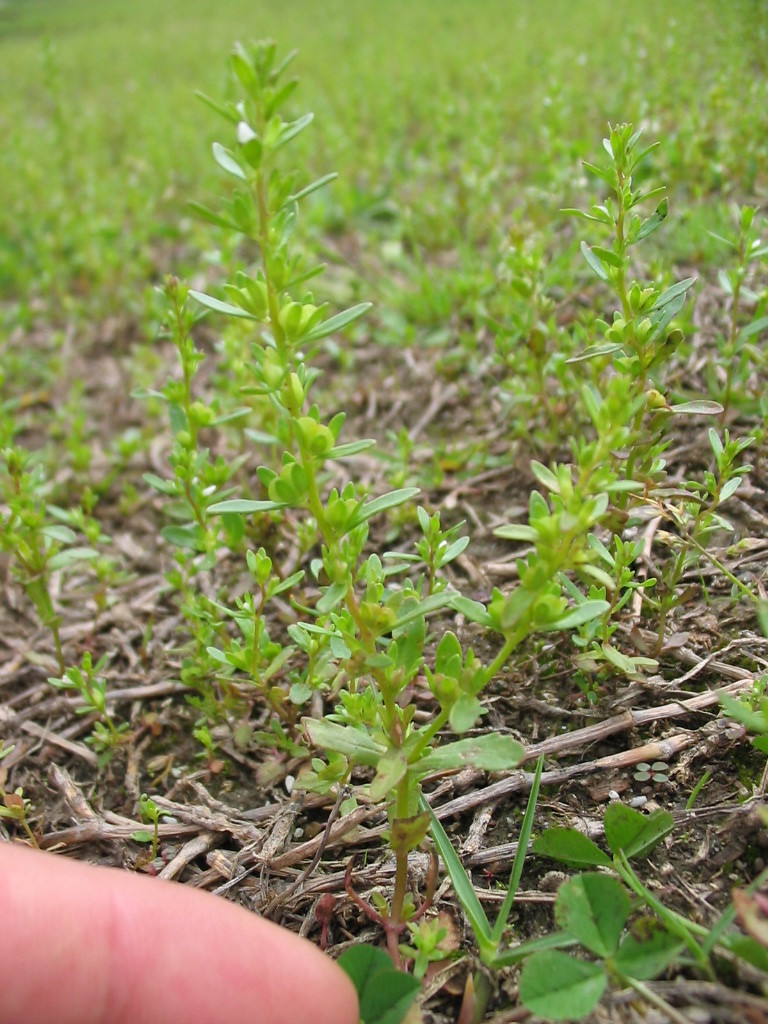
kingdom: Plantae
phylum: Tracheophyta
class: Magnoliopsida
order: Lamiales
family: Plantaginaceae
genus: Veronica
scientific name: Veronica peregrina
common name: Neckweed
